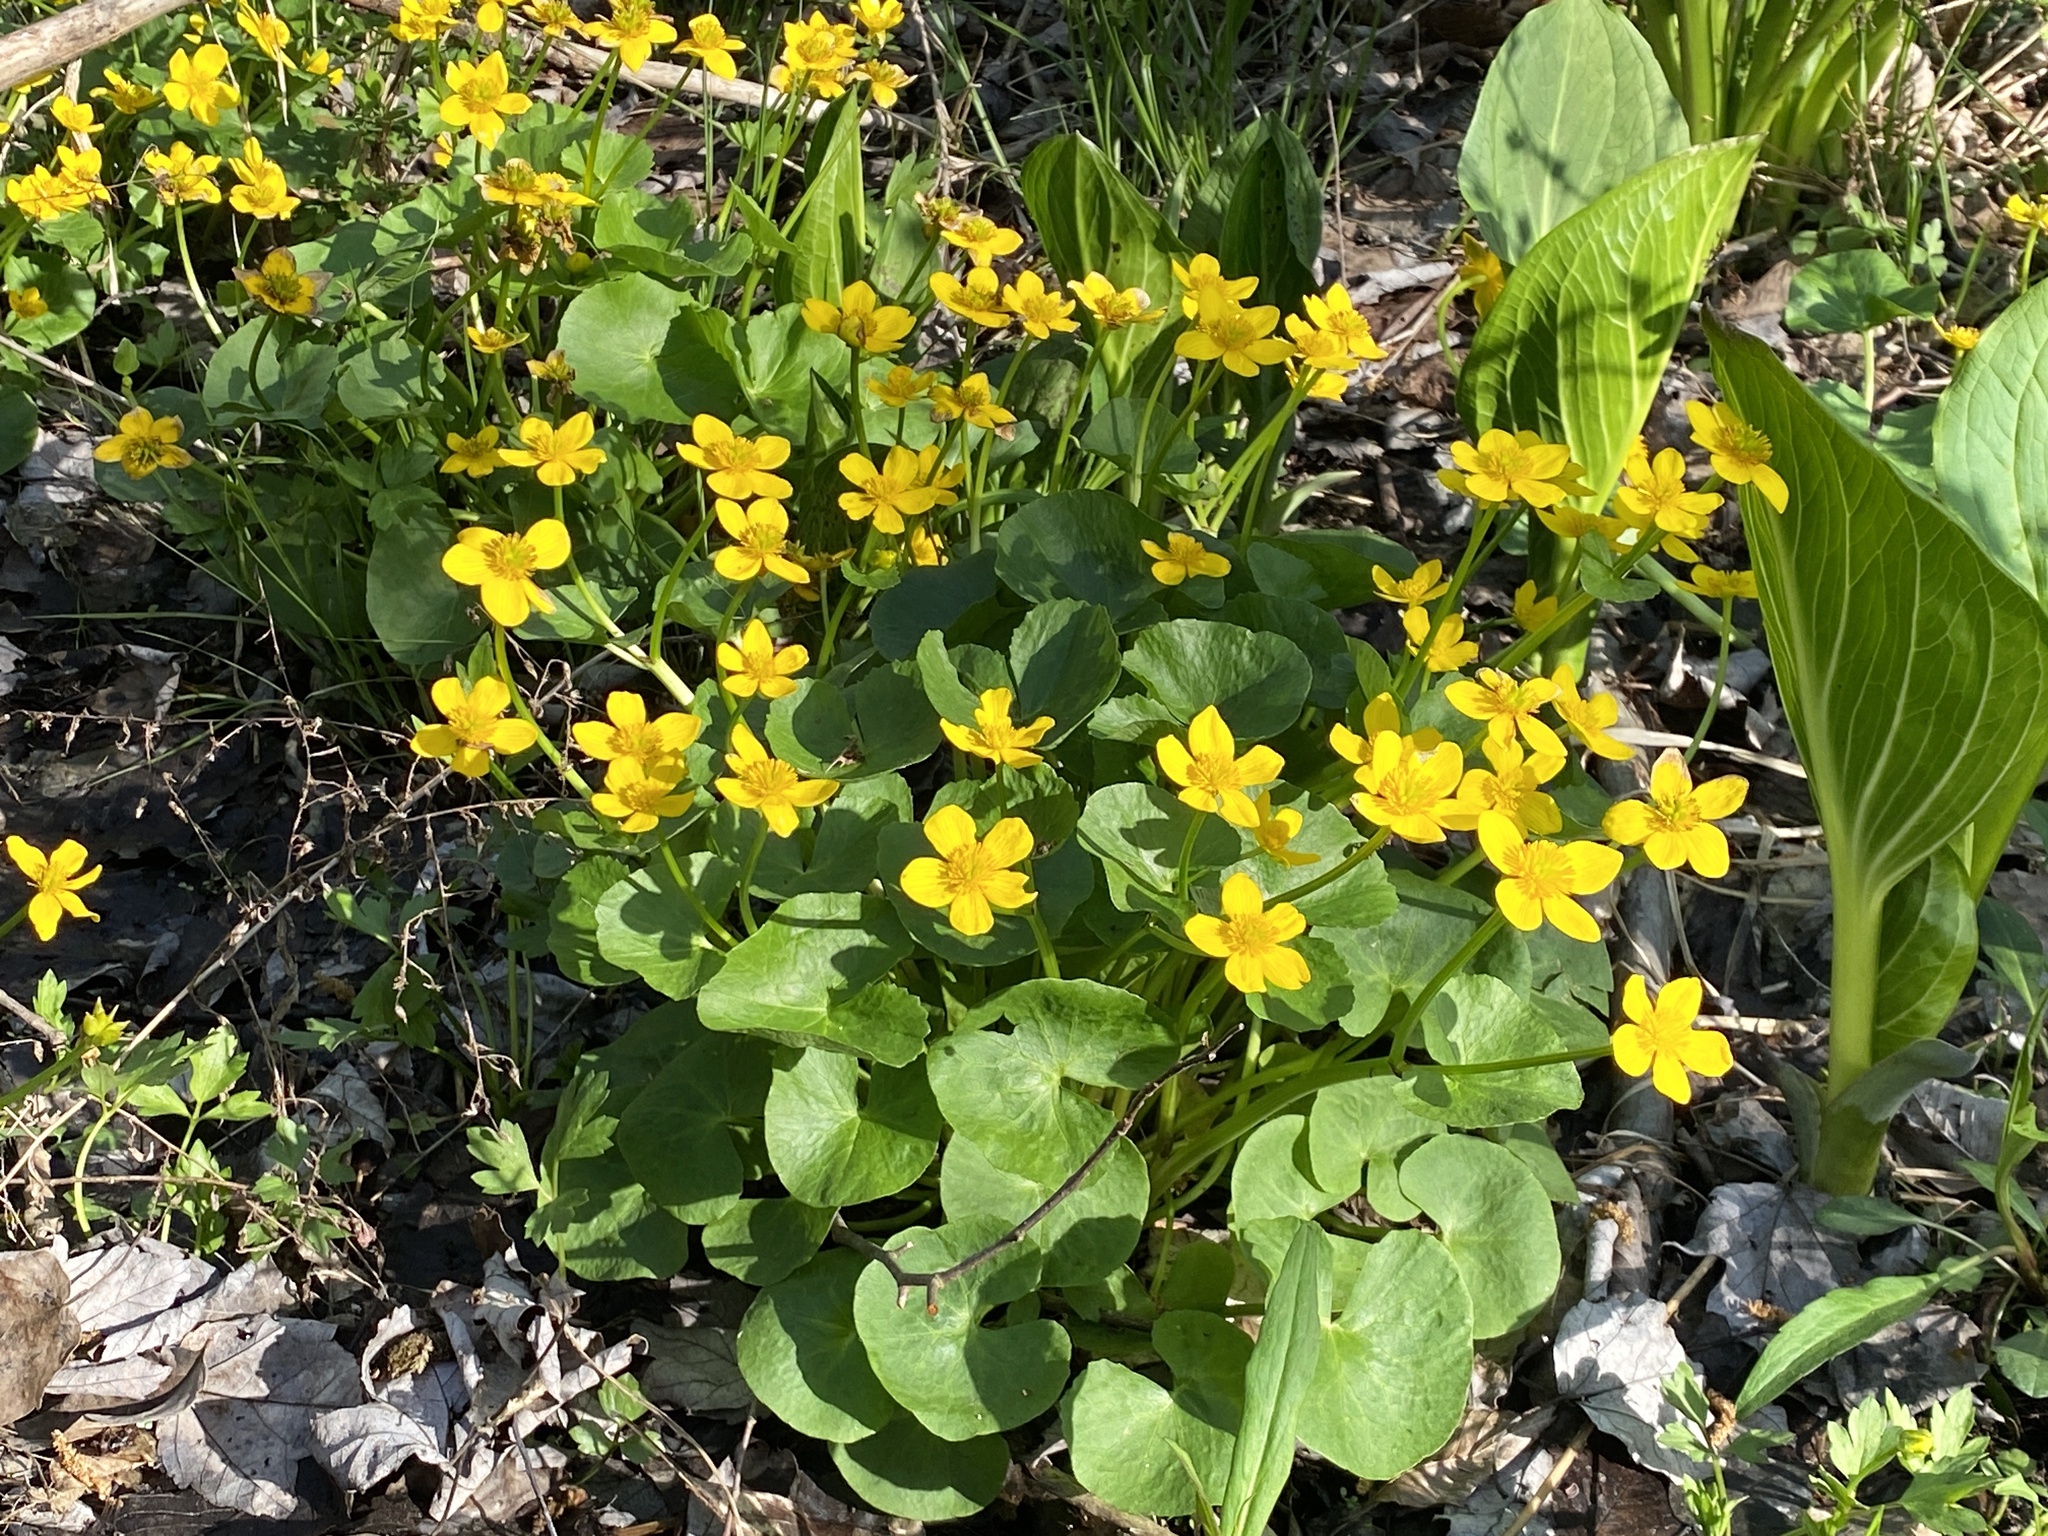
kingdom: Plantae
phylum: Tracheophyta
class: Magnoliopsida
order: Ranunculales
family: Ranunculaceae
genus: Caltha
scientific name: Caltha palustris
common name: Marsh marigold
